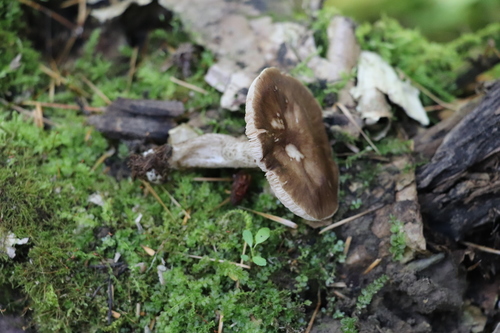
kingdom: Fungi
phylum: Basidiomycota
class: Agaricomycetes
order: Agaricales
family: Pluteaceae
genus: Pluteus
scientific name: Pluteus rangifer
